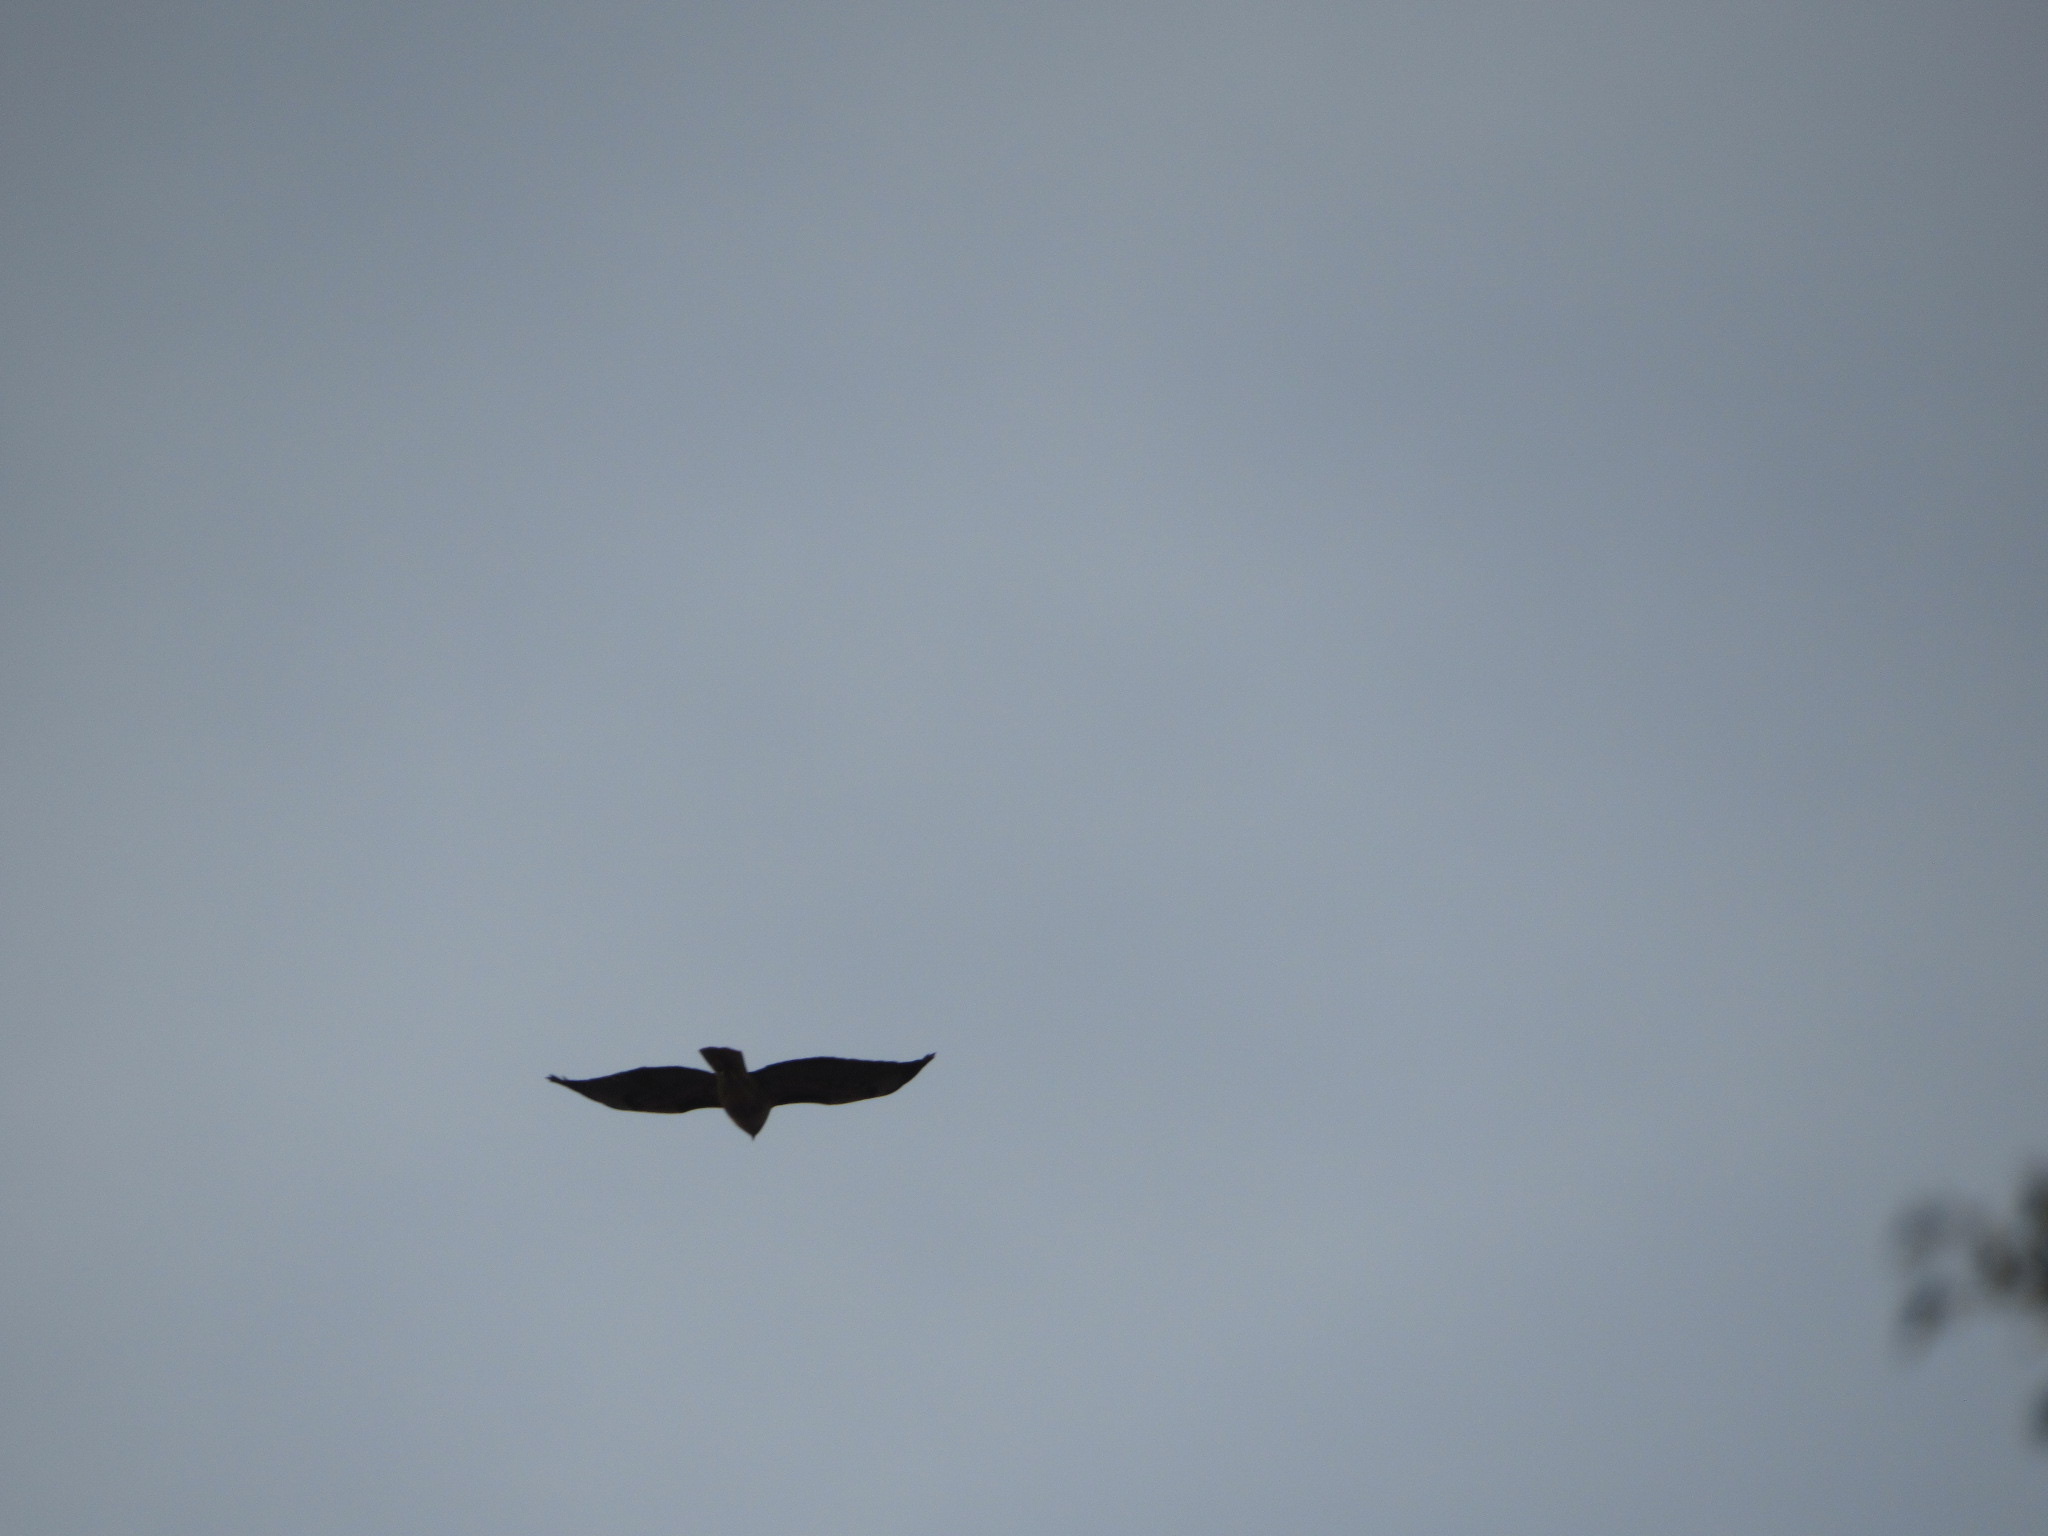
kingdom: Animalia
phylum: Chordata
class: Aves
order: Accipitriformes
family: Accipitridae
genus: Buteo
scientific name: Buteo jamaicensis
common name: Red-tailed hawk
